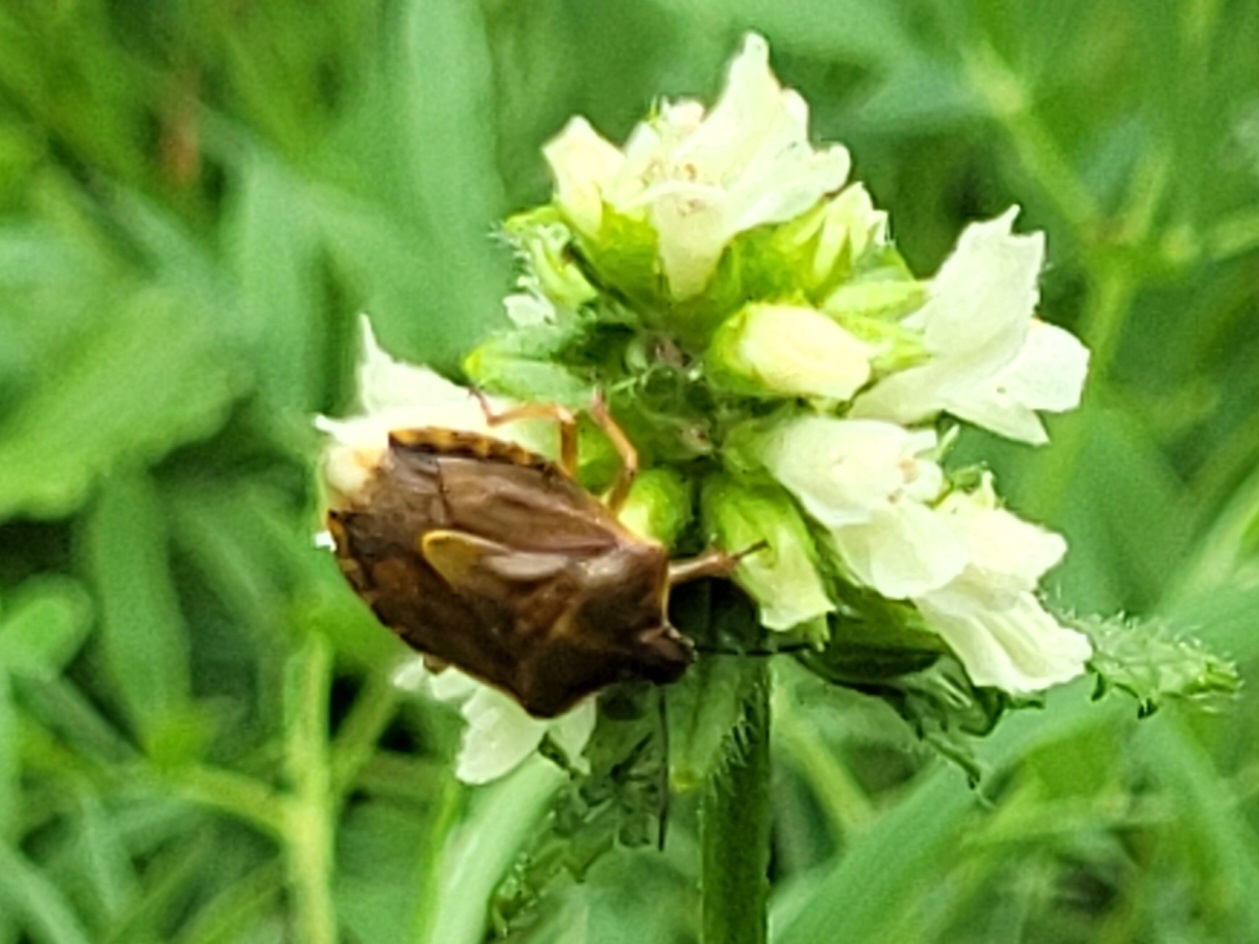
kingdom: Animalia
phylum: Arthropoda
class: Insecta
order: Hemiptera
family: Pentatomidae
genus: Carpocoris
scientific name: Carpocoris melanocerus
